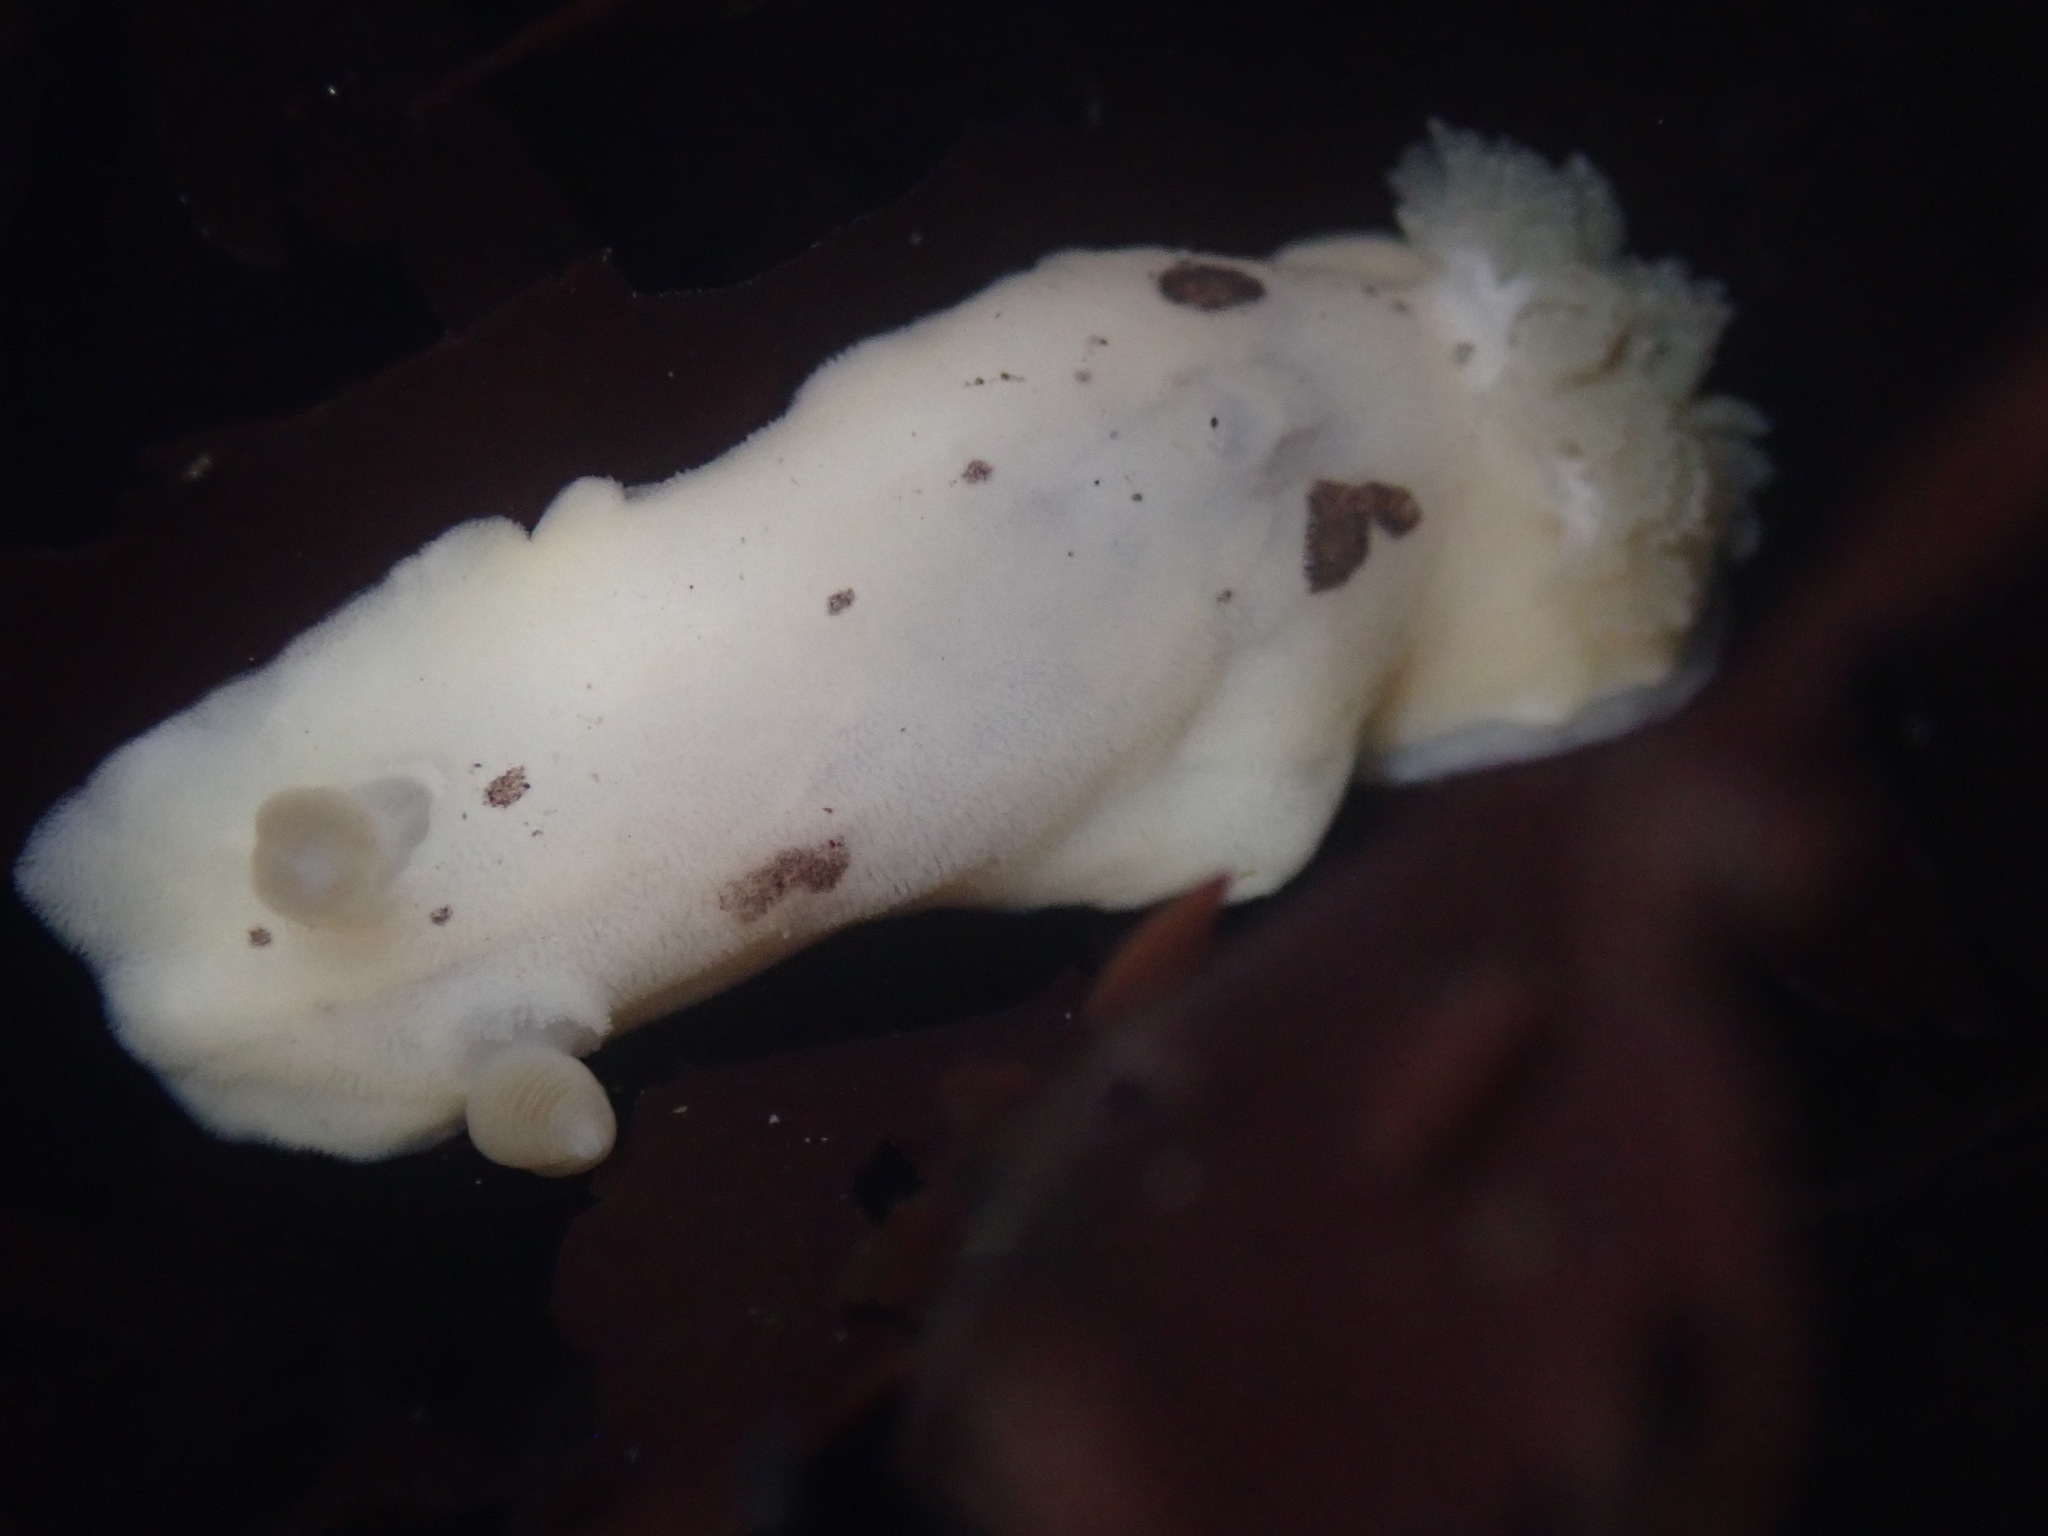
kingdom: Animalia
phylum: Mollusca
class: Gastropoda
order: Nudibranchia
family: Discodorididae
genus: Diaulula
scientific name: Diaulula sandiegensis
